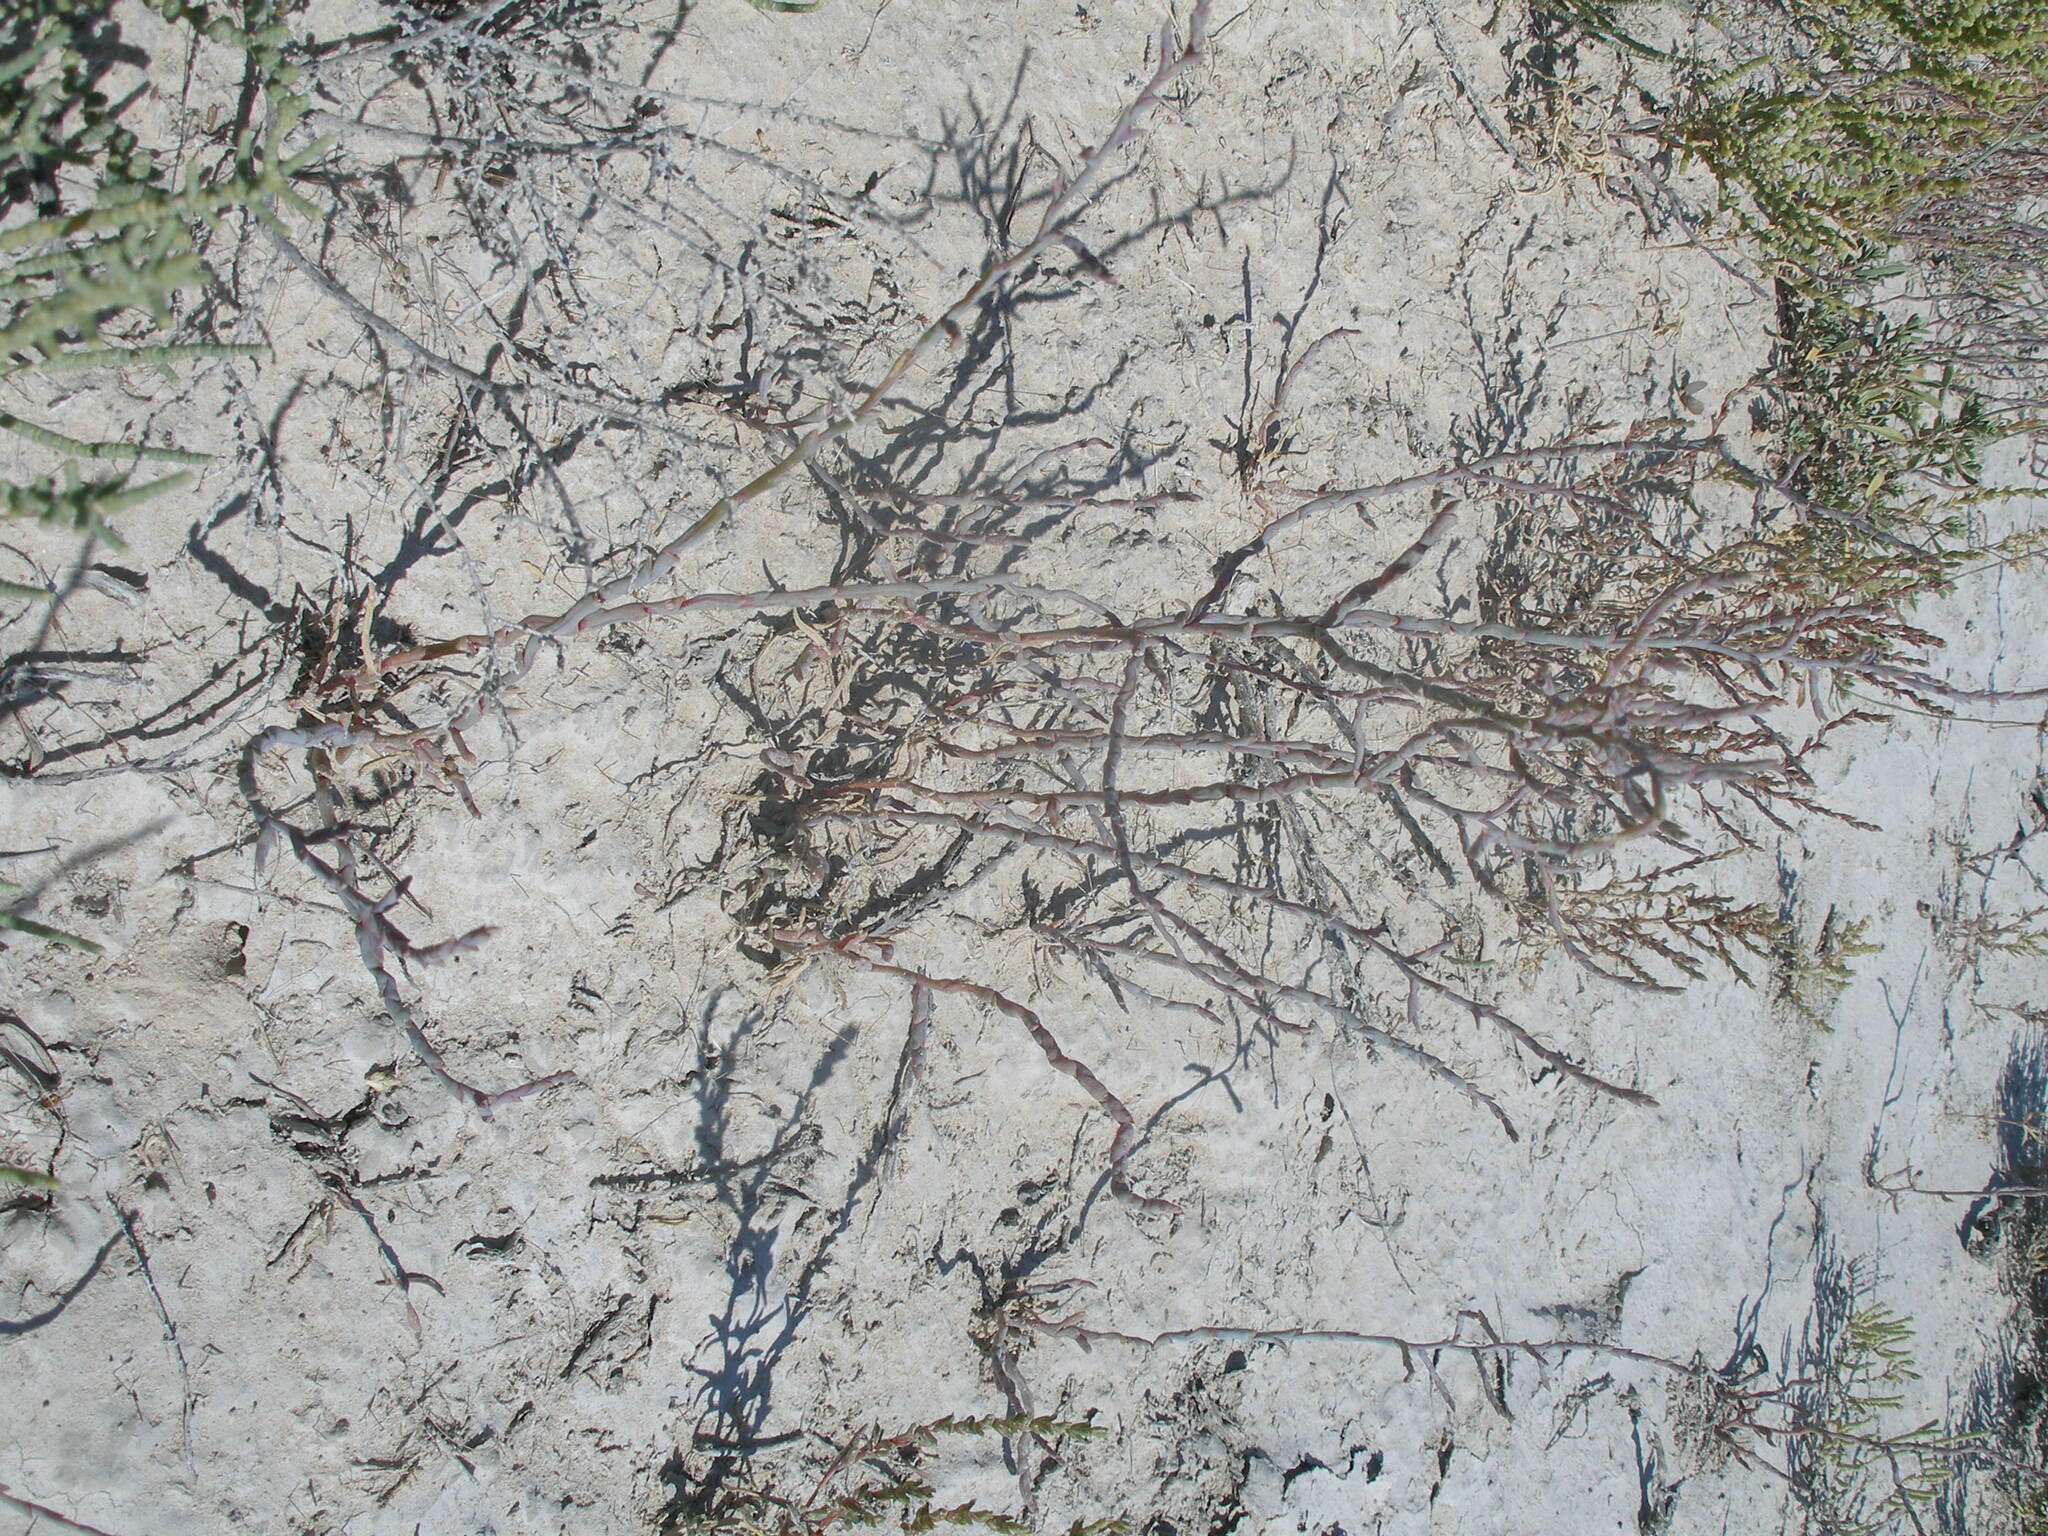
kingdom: Plantae
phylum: Tracheophyta
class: Magnoliopsida
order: Caryophyllales
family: Amaranthaceae
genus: Ofaiston
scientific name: Ofaiston monandrum
